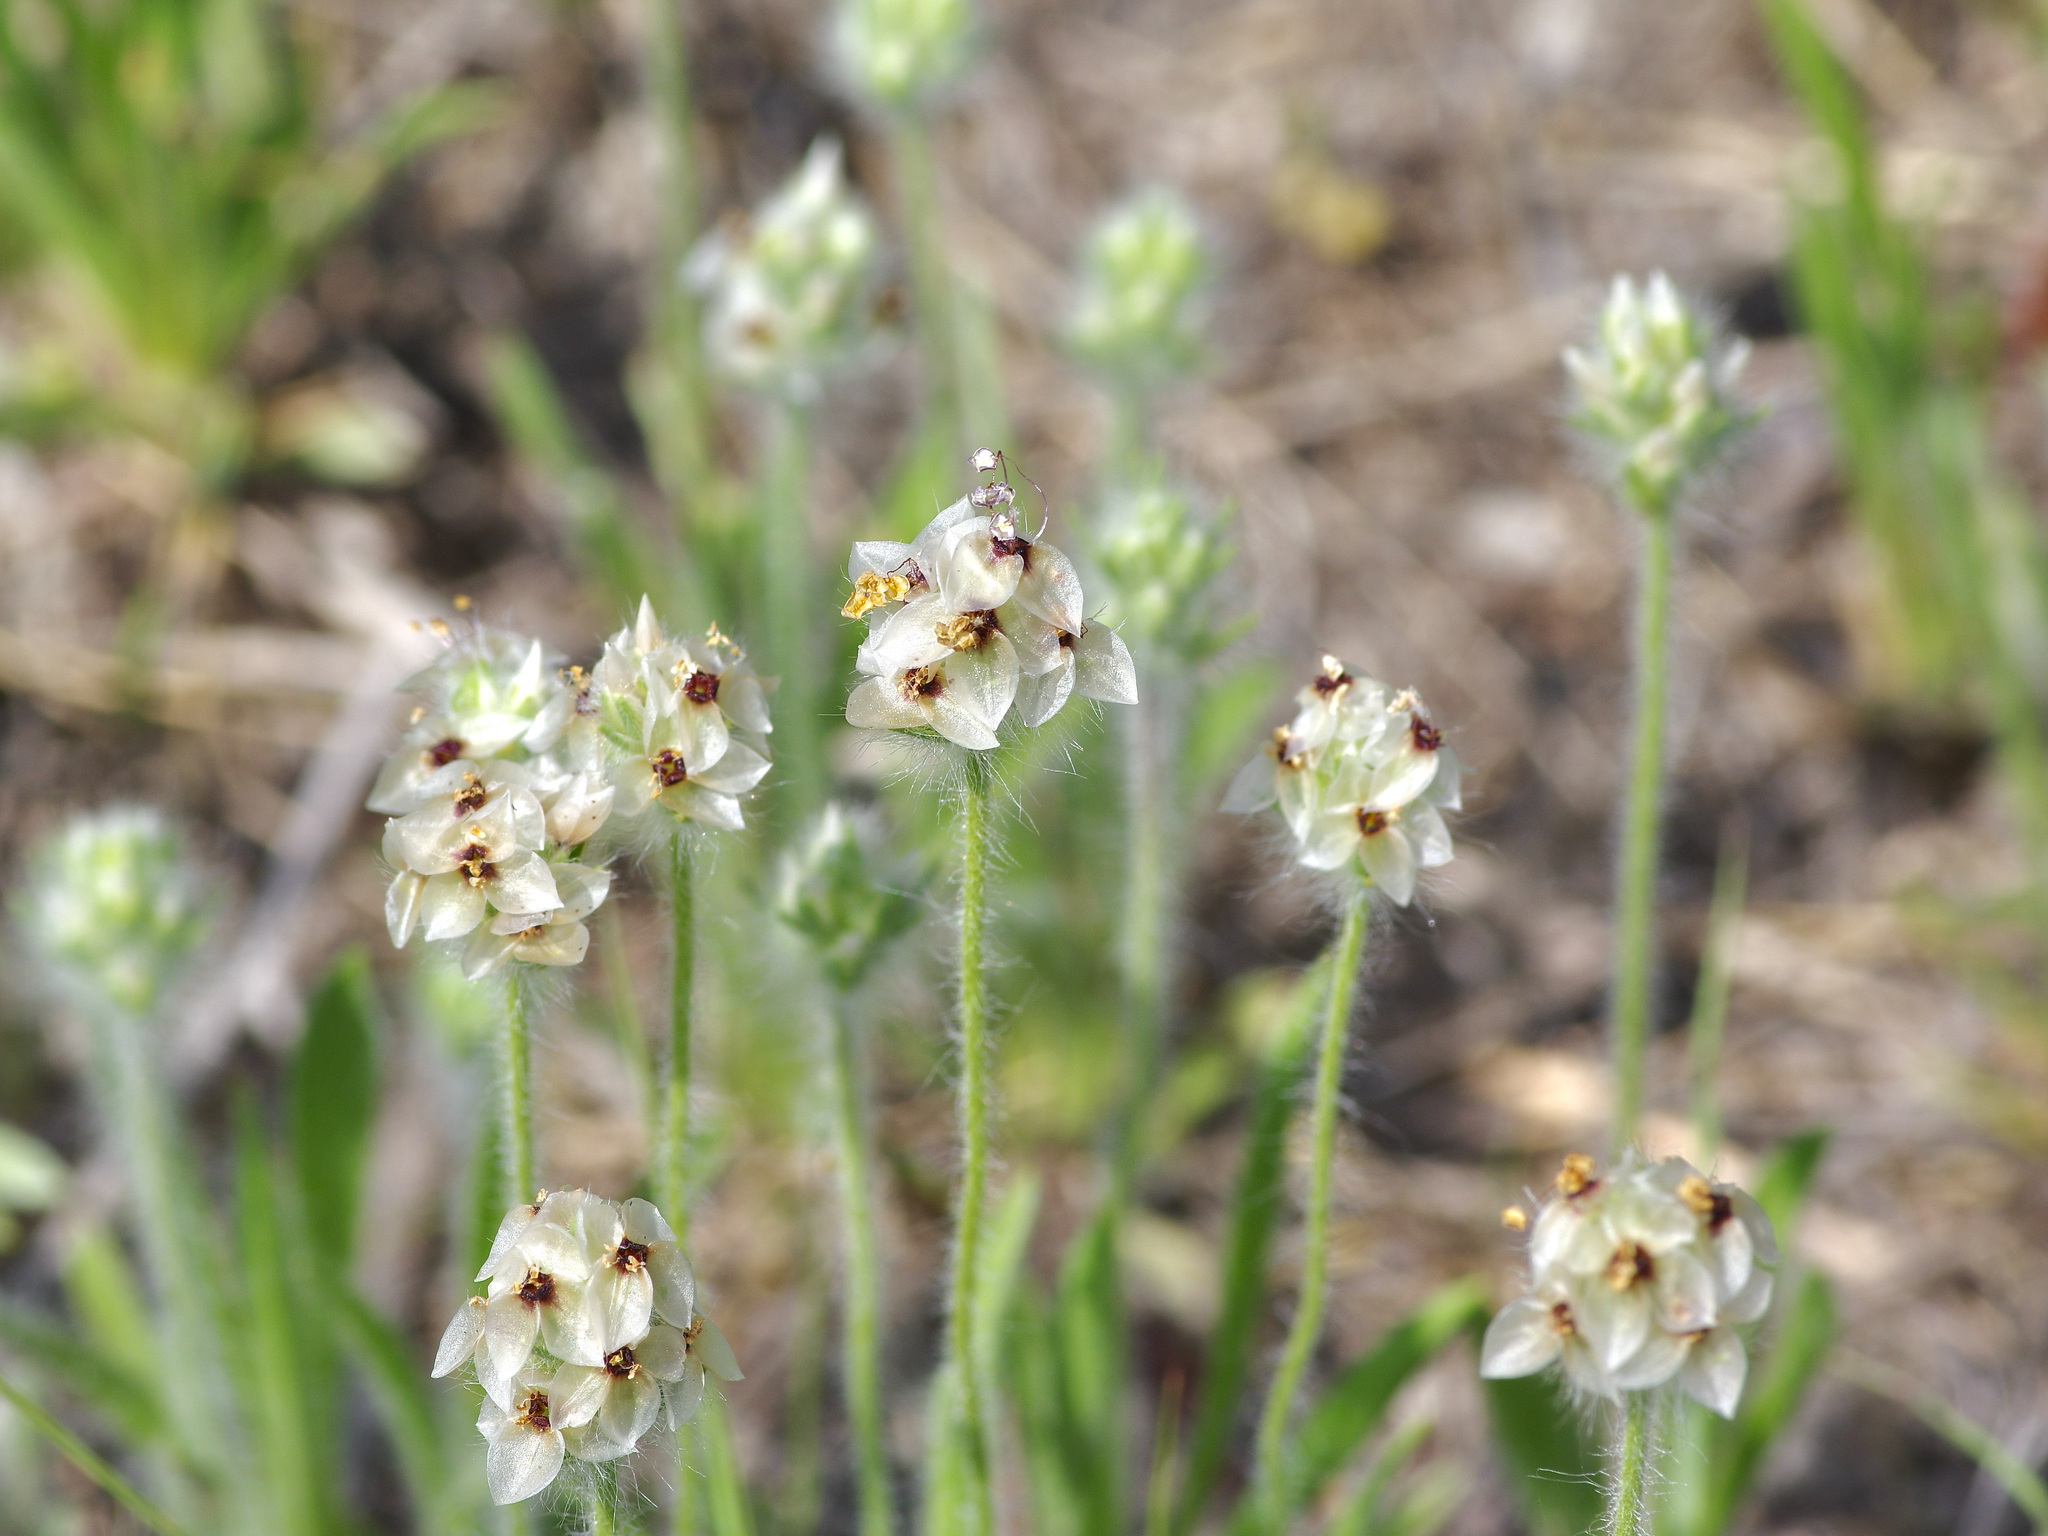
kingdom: Plantae
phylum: Tracheophyta
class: Magnoliopsida
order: Lamiales
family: Plantaginaceae
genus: Plantago
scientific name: Plantago helleri
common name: Heller's plantain
